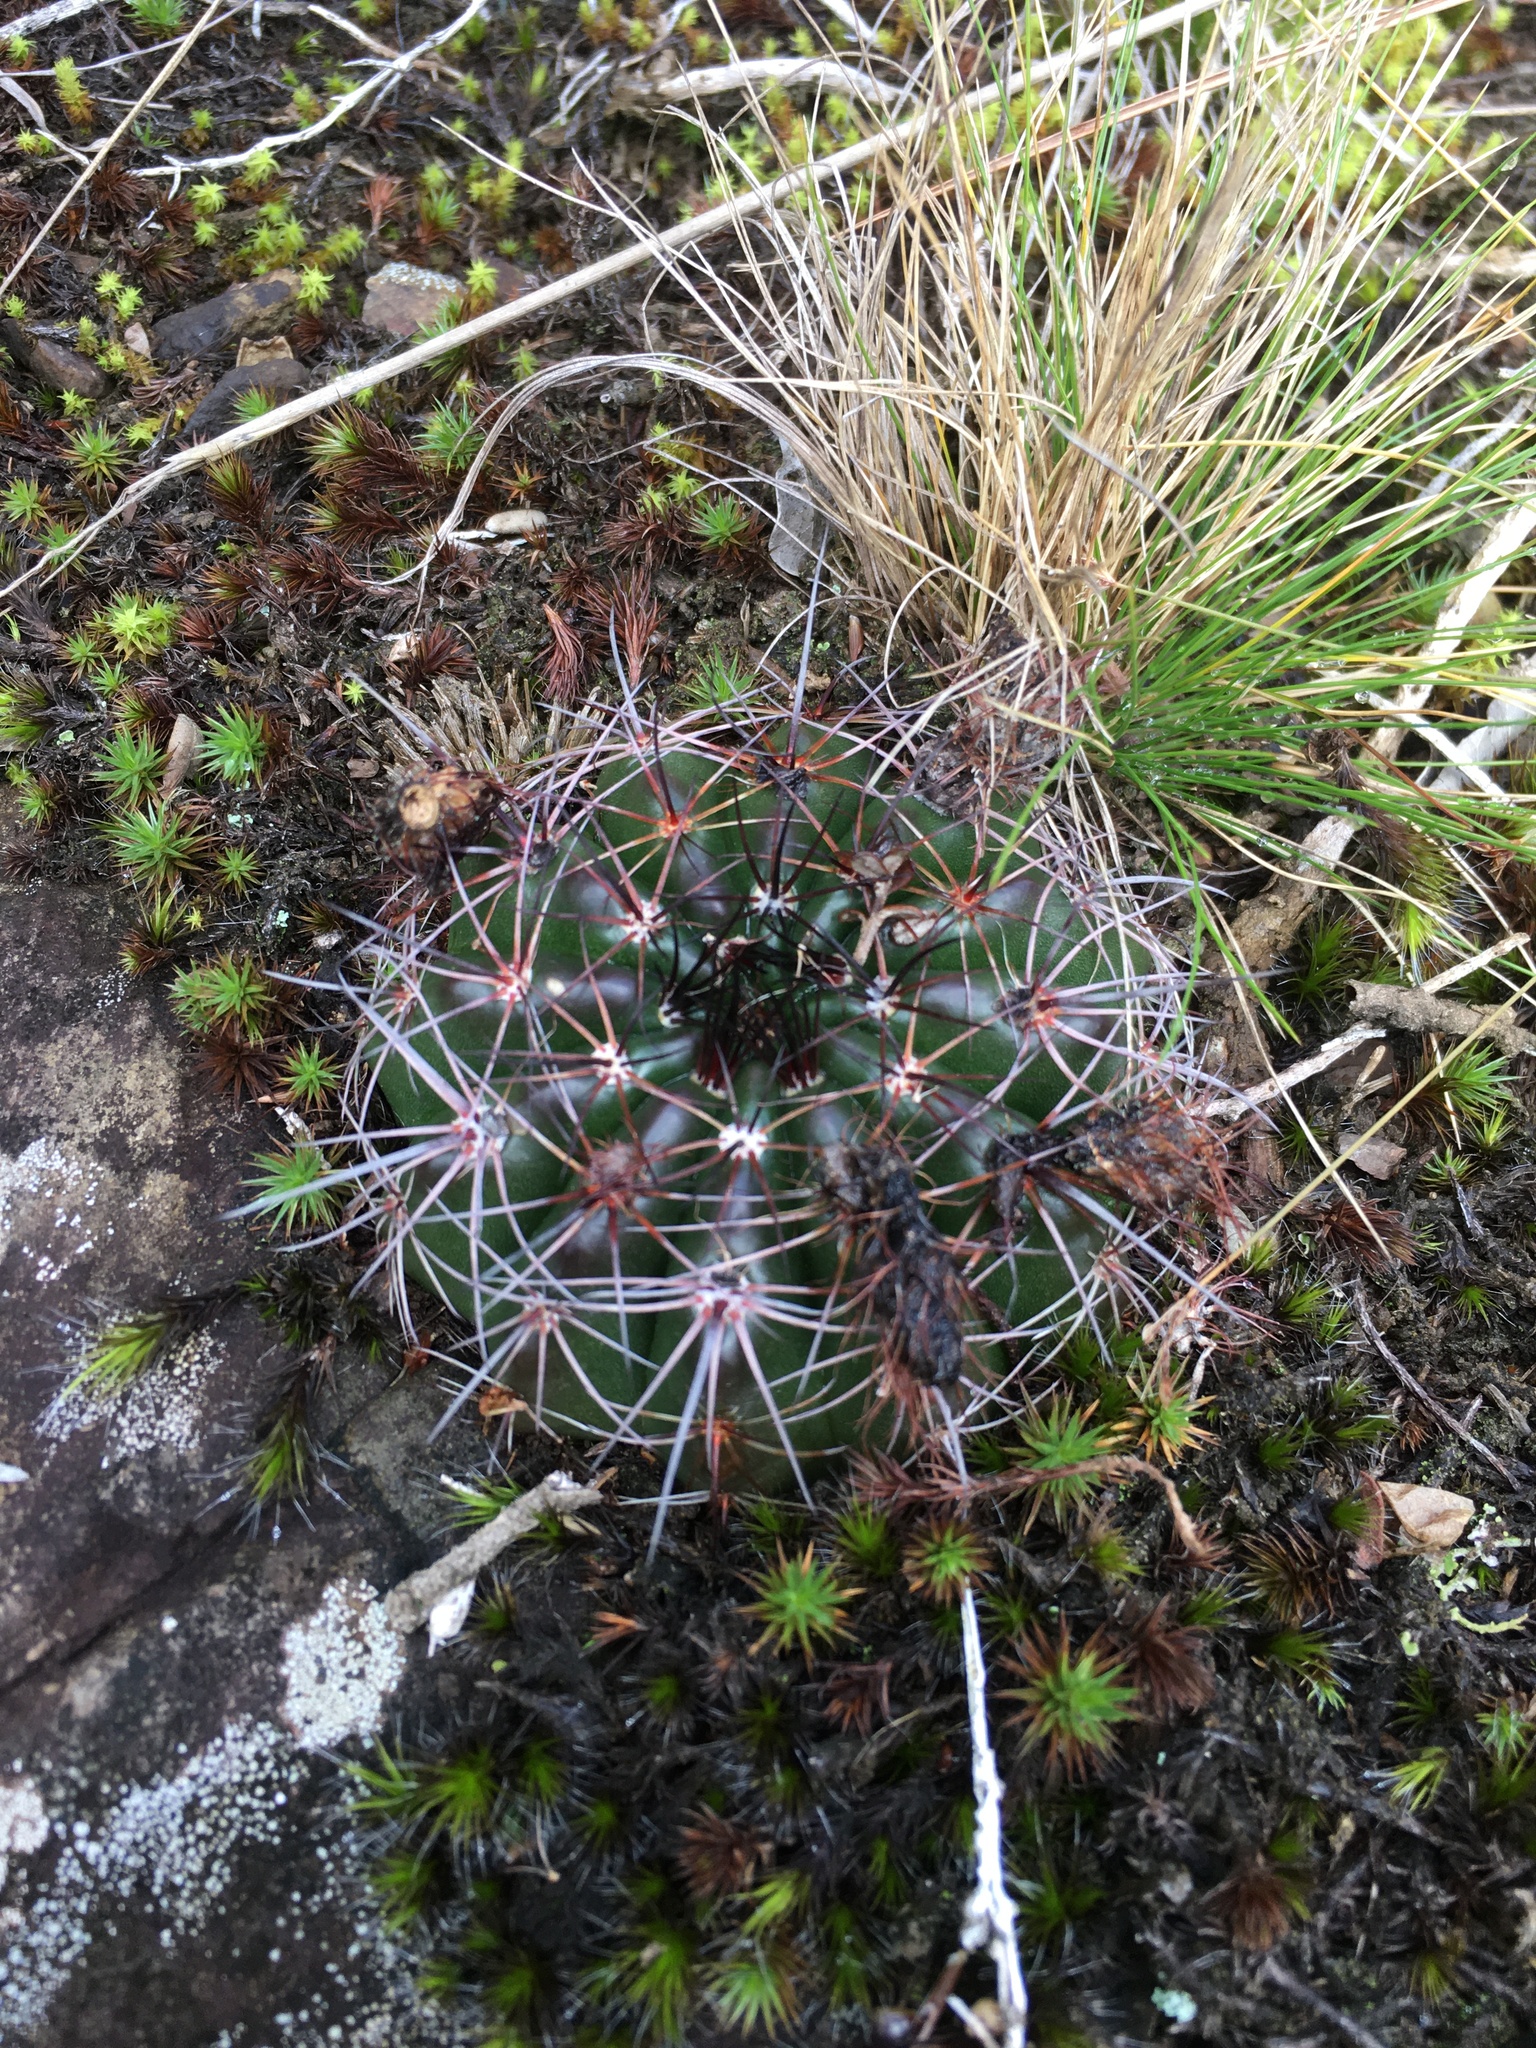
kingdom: Plantae
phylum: Tracheophyta
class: Magnoliopsida
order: Caryophyllales
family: Cactaceae
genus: Parodia
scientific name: Parodia linkii
